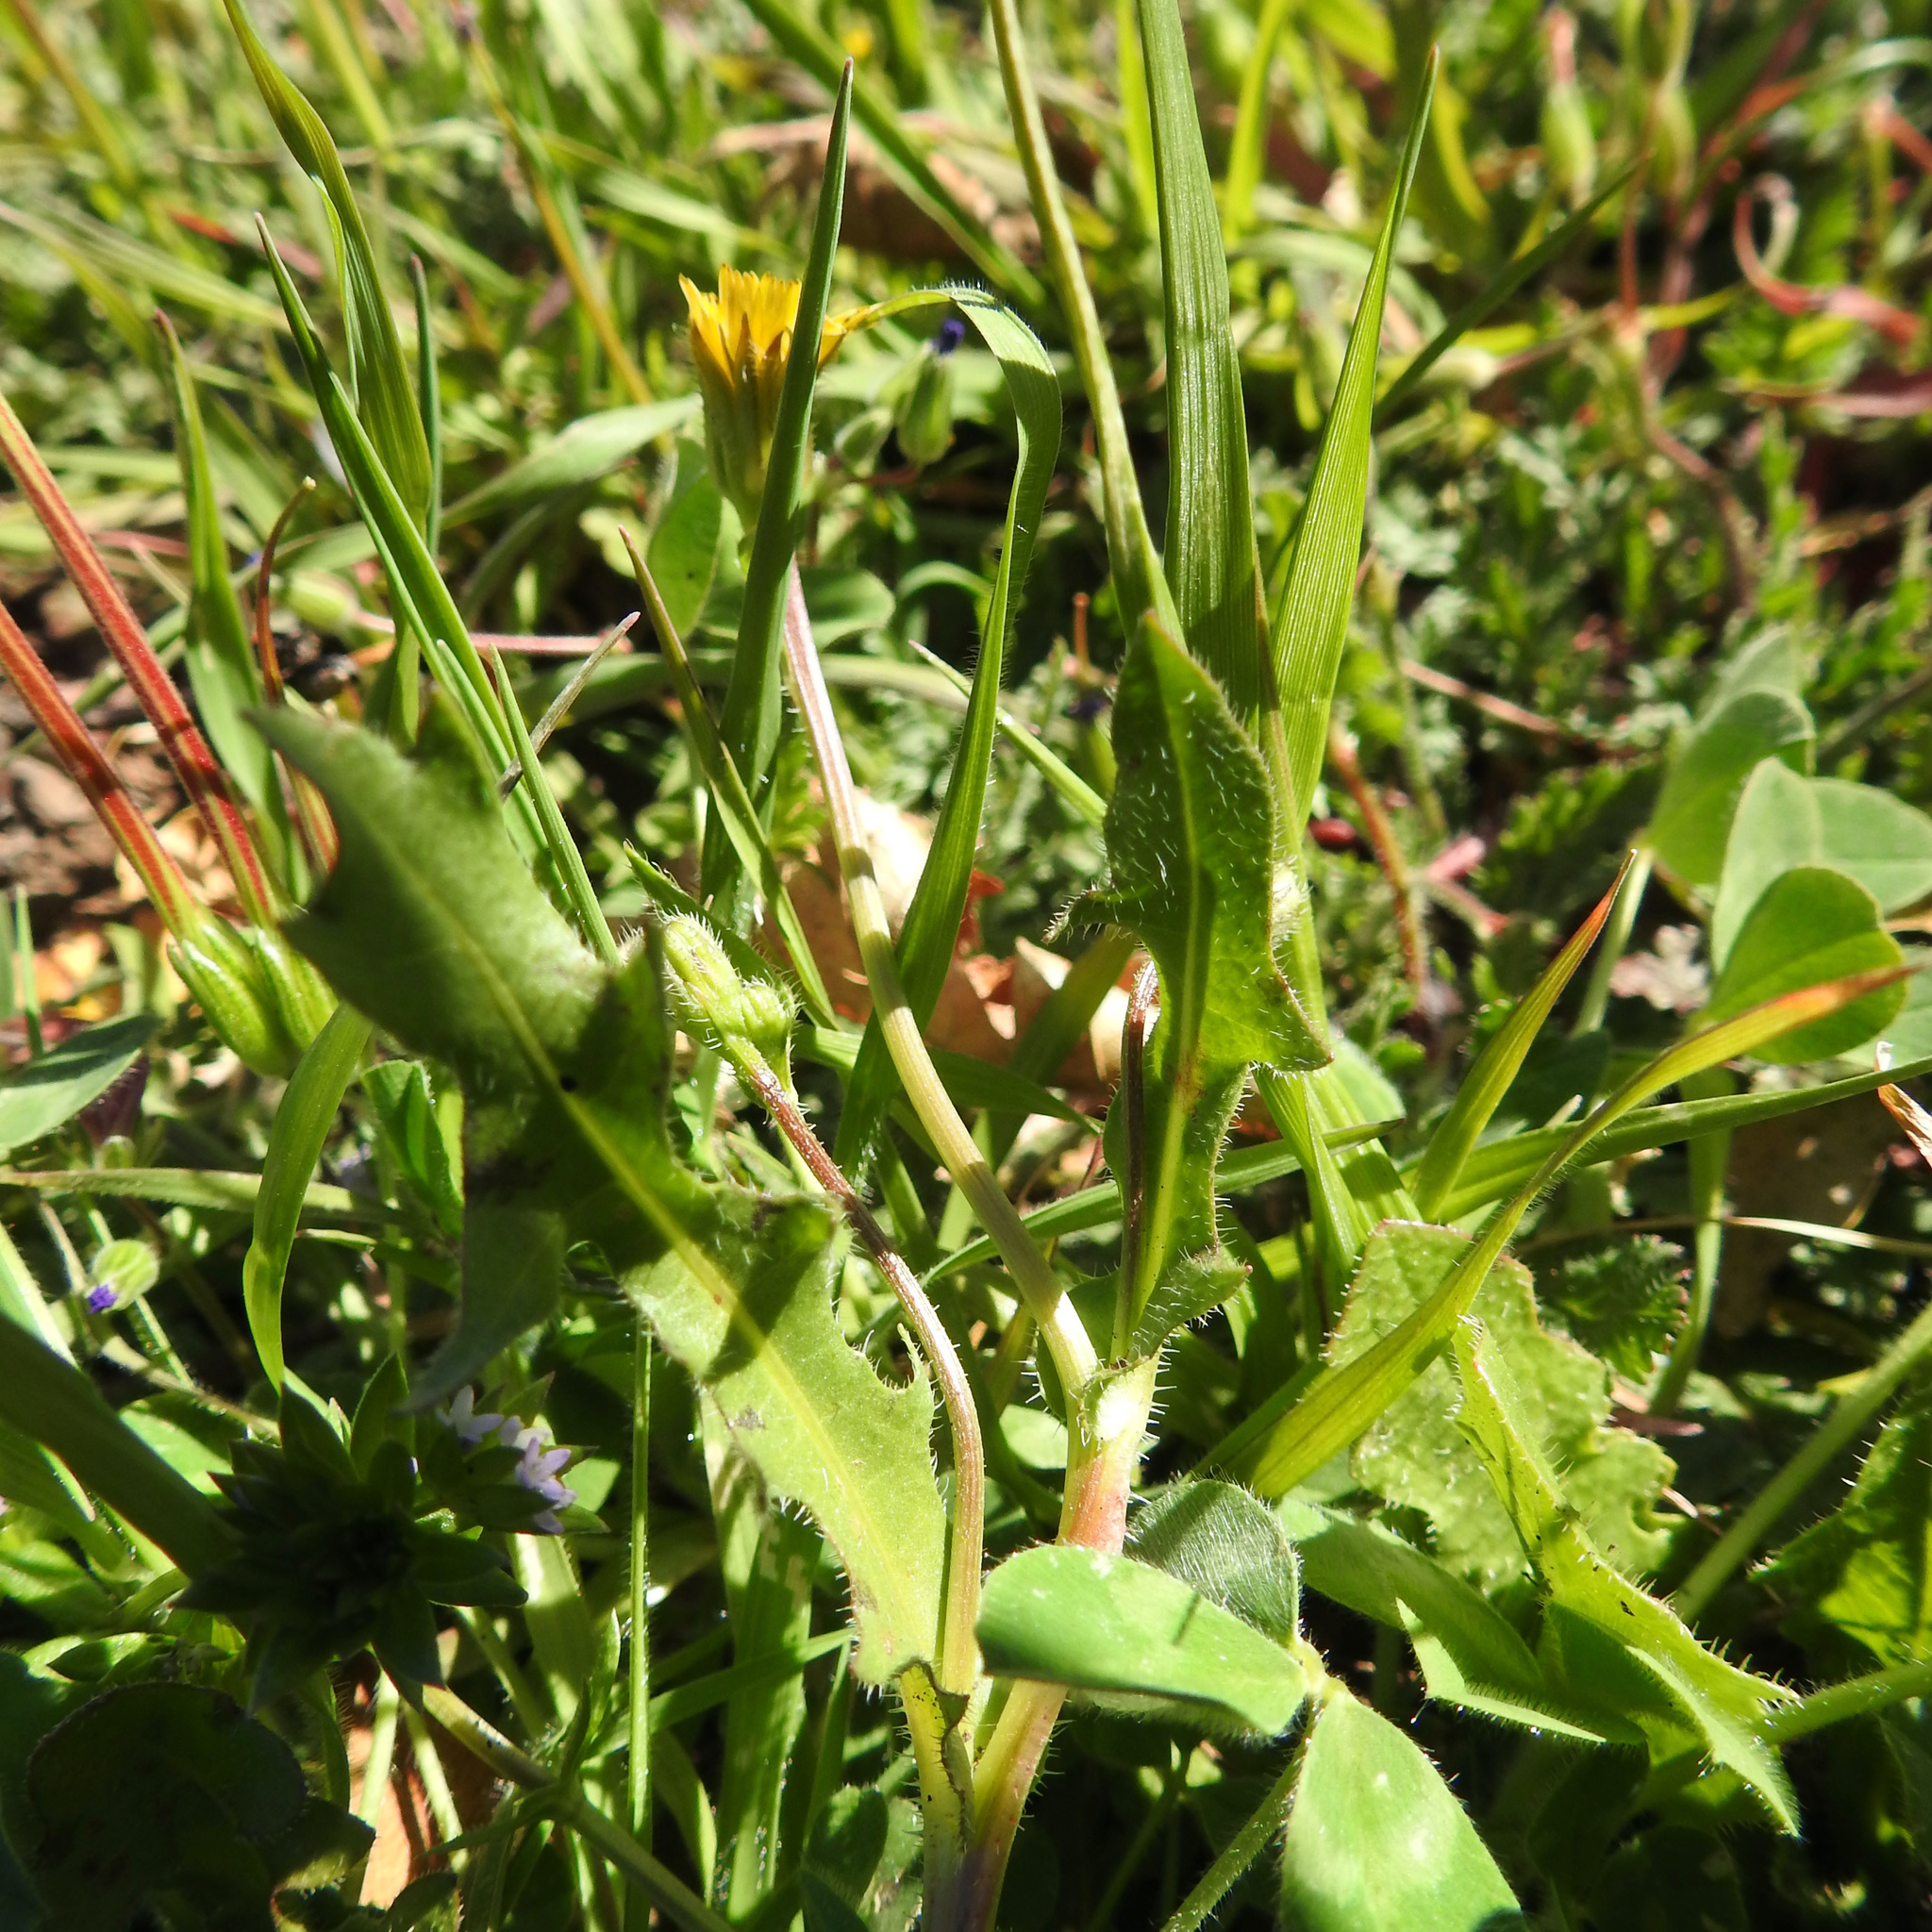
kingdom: Plantae
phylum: Tracheophyta
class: Magnoliopsida
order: Asterales
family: Asteraceae
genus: Hedypnois
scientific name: Hedypnois rhagadioloides
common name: Cretan weed
